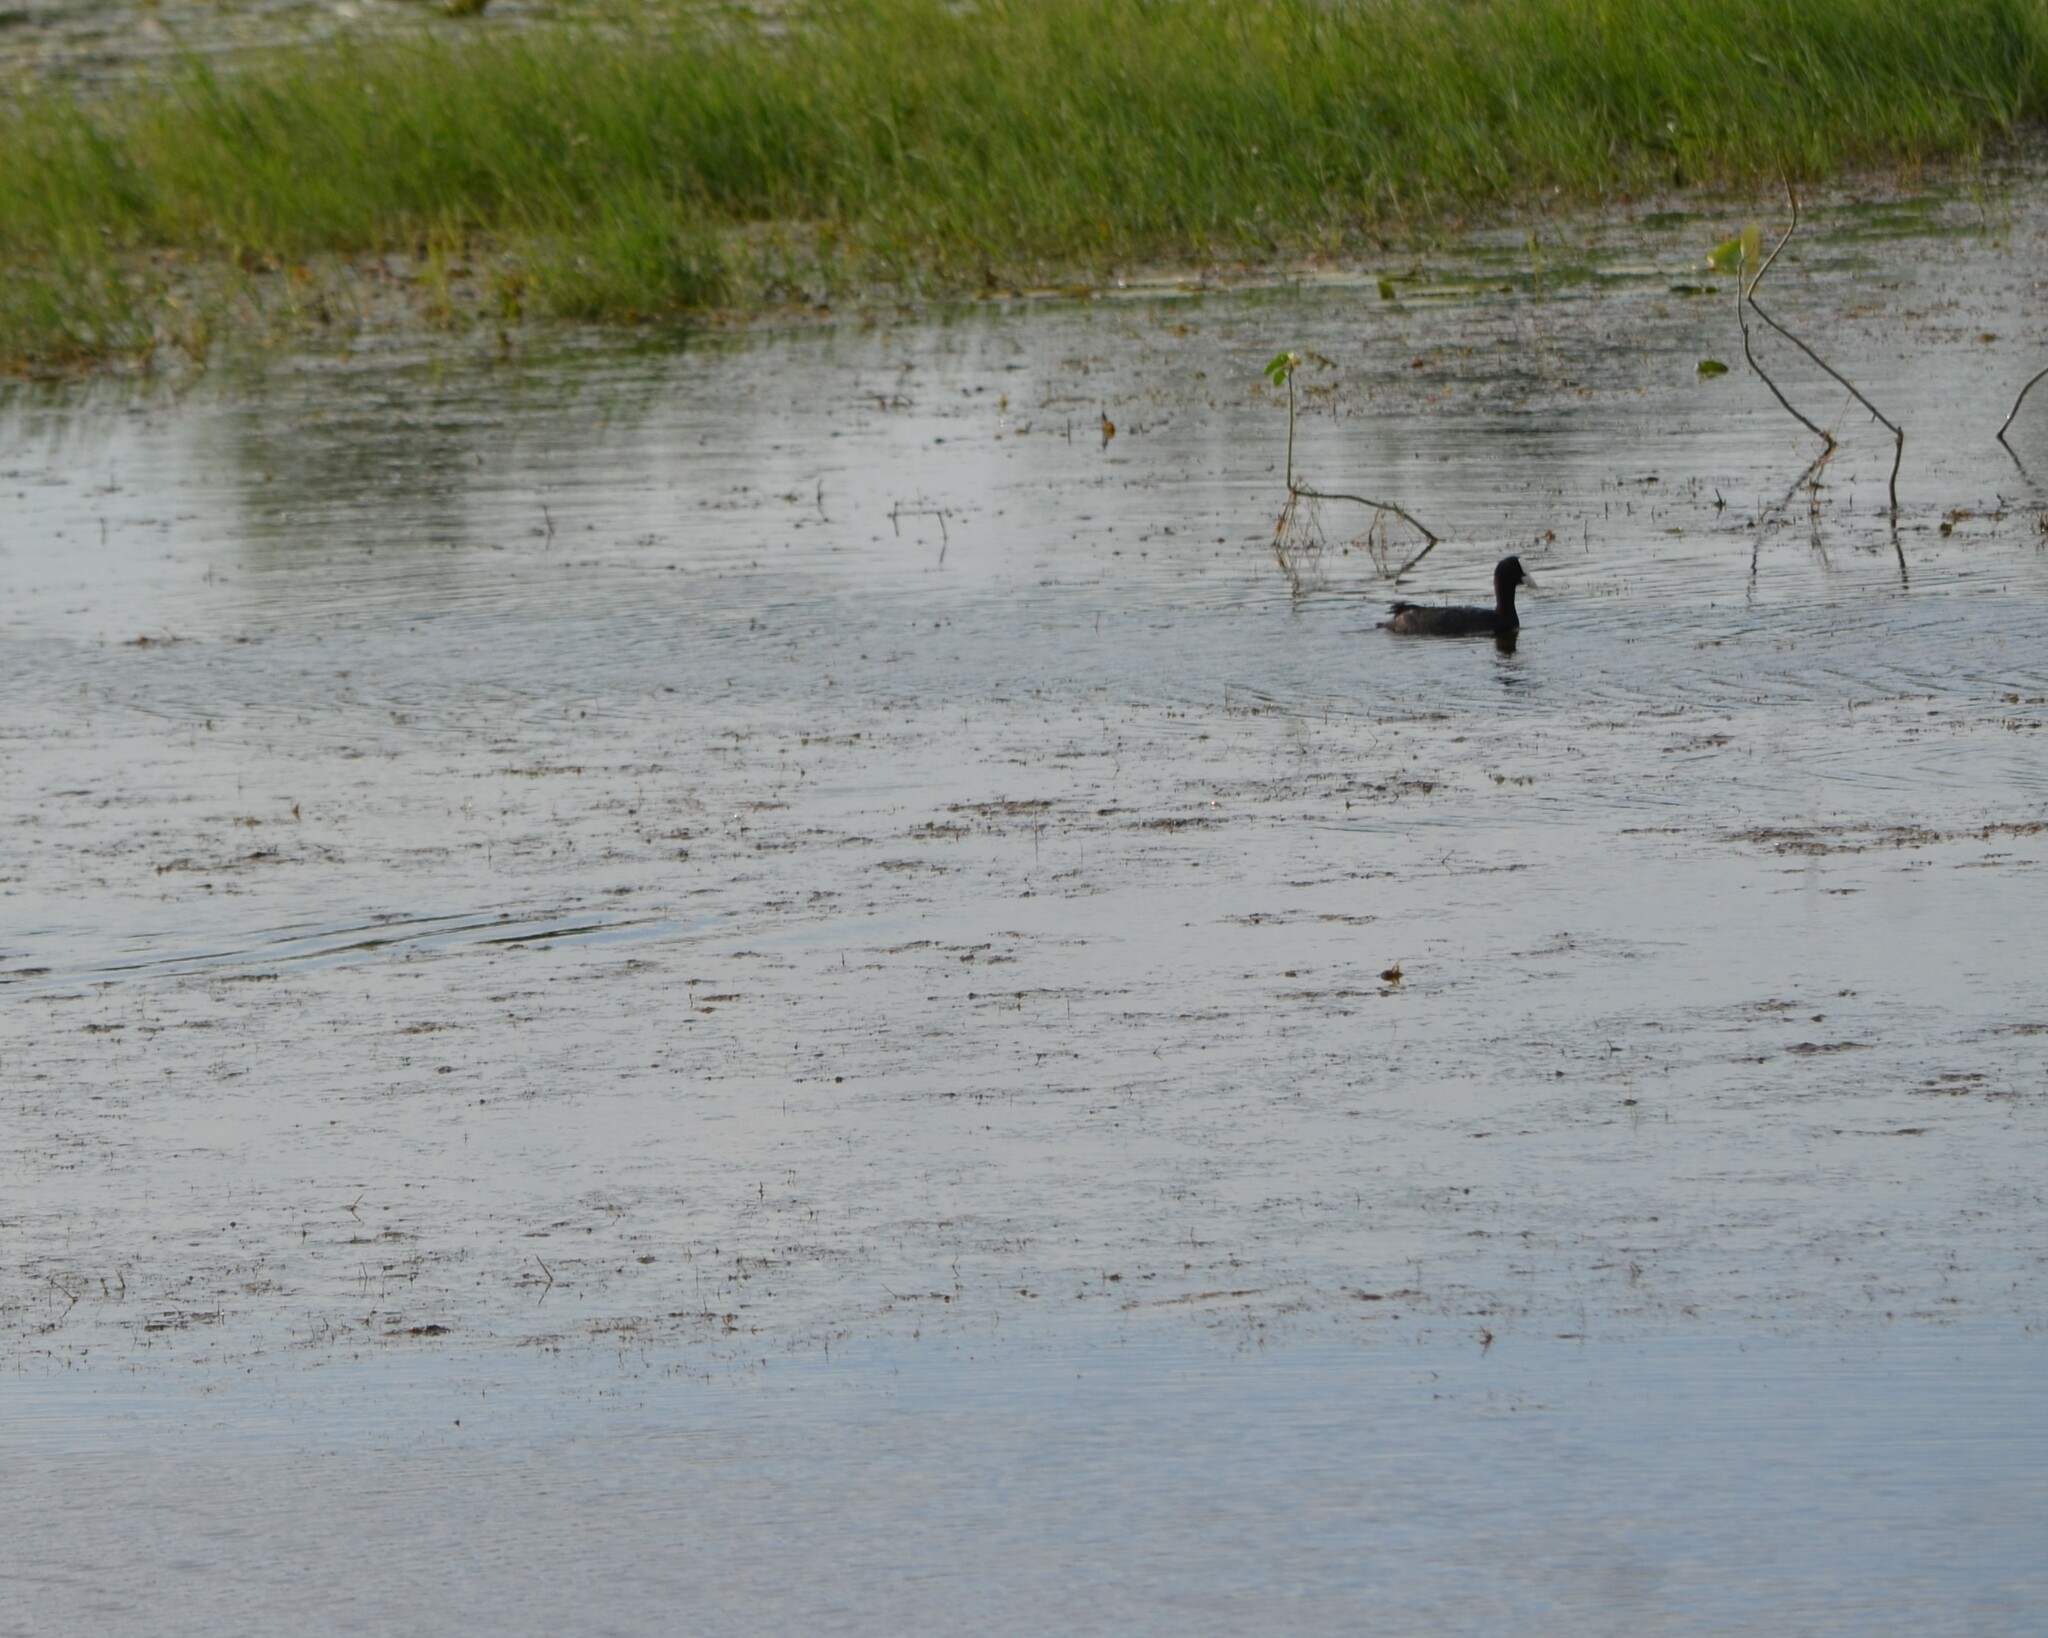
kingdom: Animalia
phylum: Chordata
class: Aves
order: Gruiformes
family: Rallidae
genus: Fulica
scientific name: Fulica atra
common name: Eurasian coot
